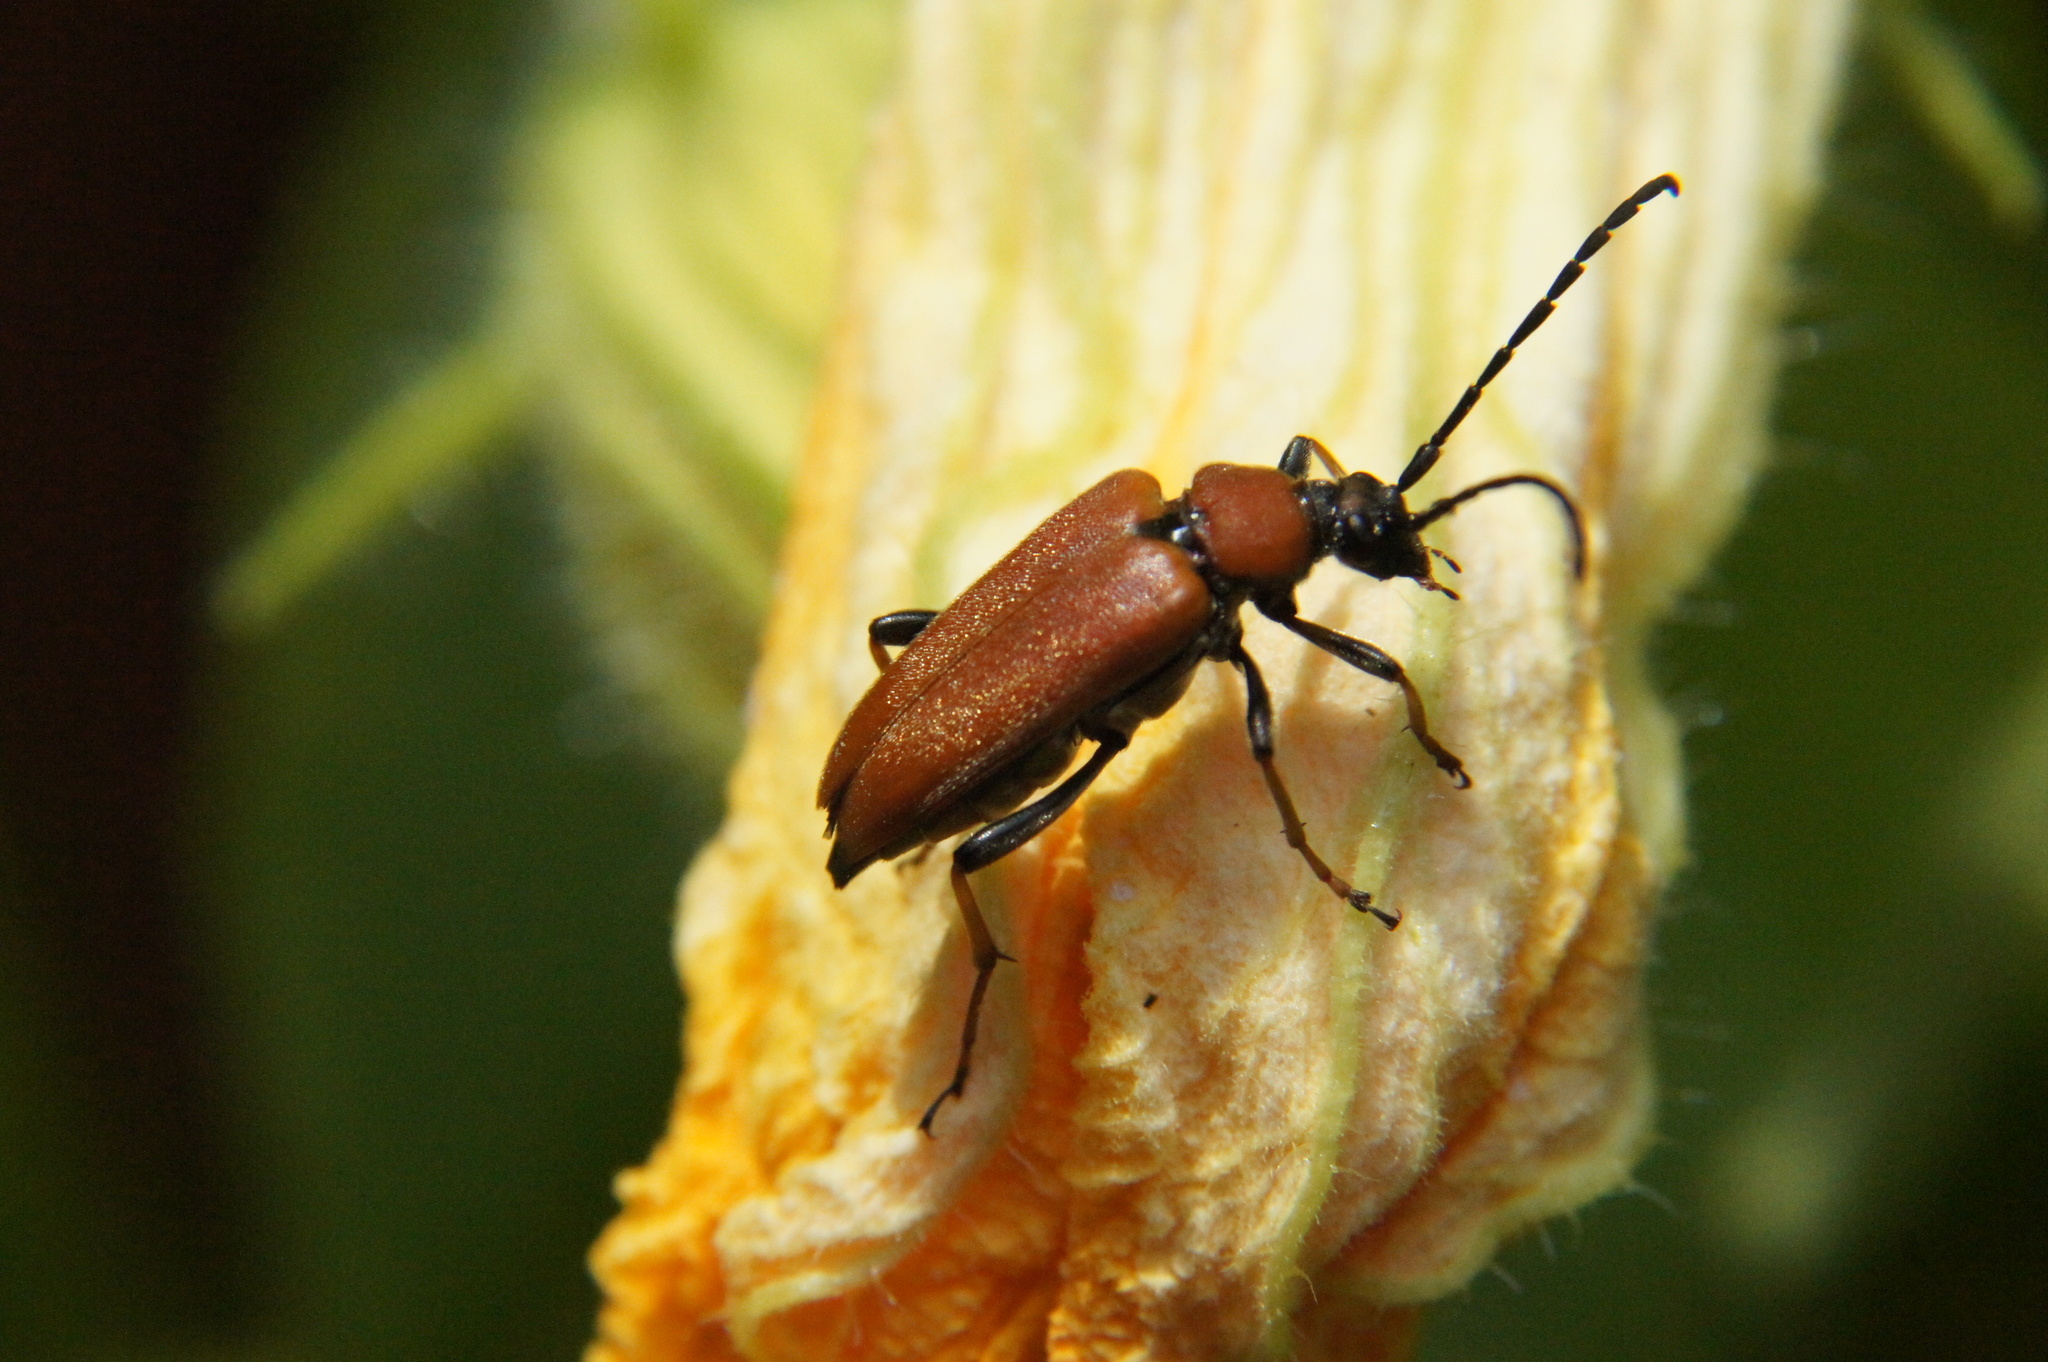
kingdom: Animalia
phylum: Arthropoda
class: Insecta
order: Coleoptera
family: Cerambycidae
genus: Stictoleptura
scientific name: Stictoleptura rubra
